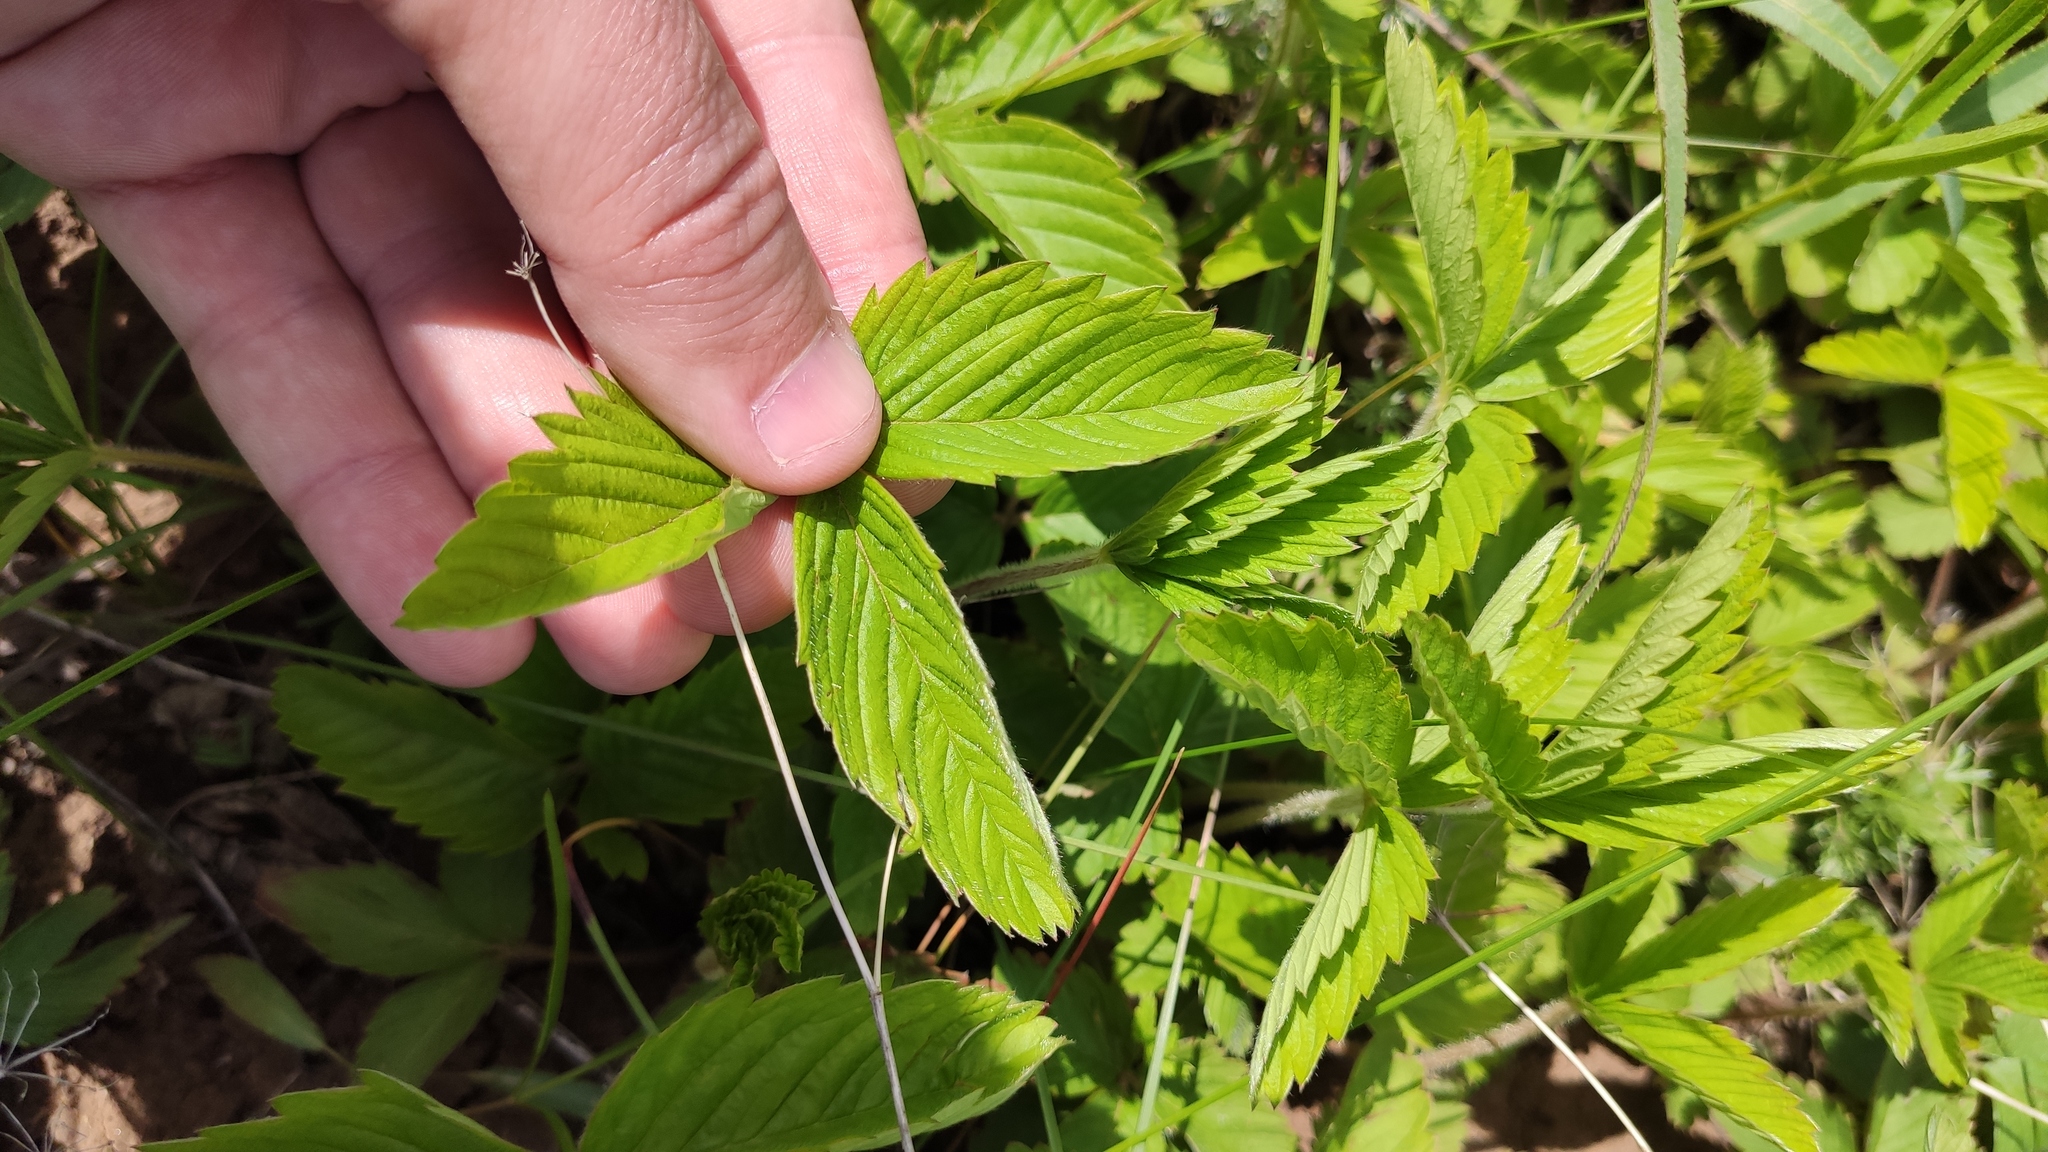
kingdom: Plantae
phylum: Tracheophyta
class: Magnoliopsida
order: Rosales
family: Rosaceae
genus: Fragaria
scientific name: Fragaria viridis
